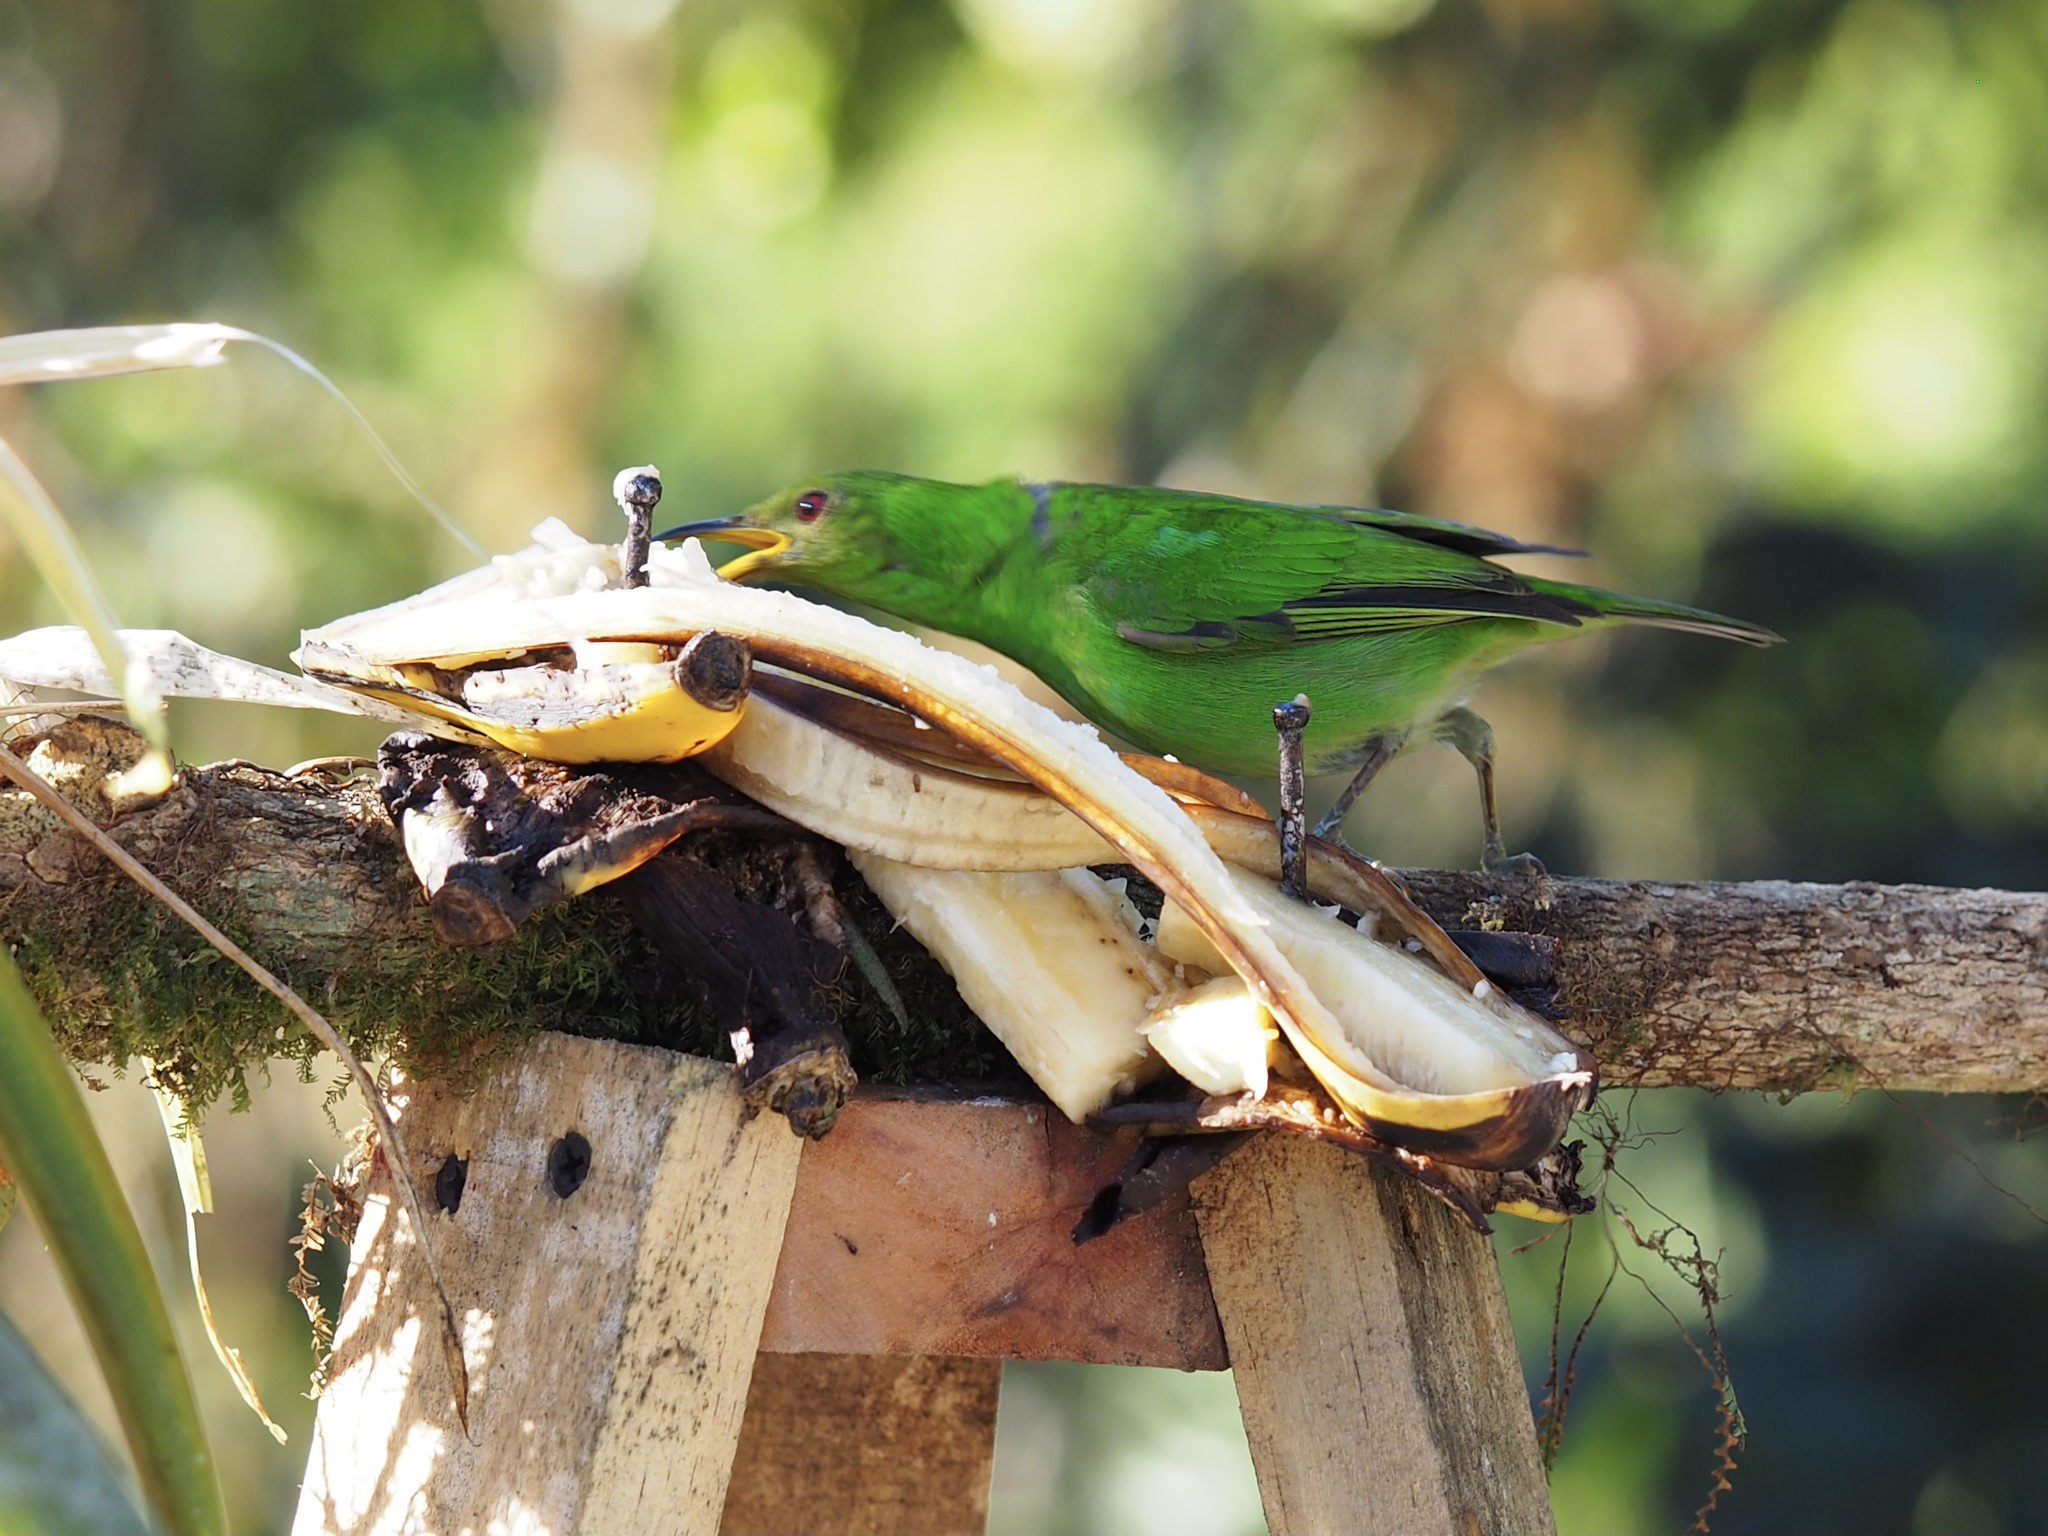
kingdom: Animalia
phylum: Chordata
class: Aves
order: Passeriformes
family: Thraupidae
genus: Chlorophanes
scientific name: Chlorophanes spiza
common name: Green honeycreeper
